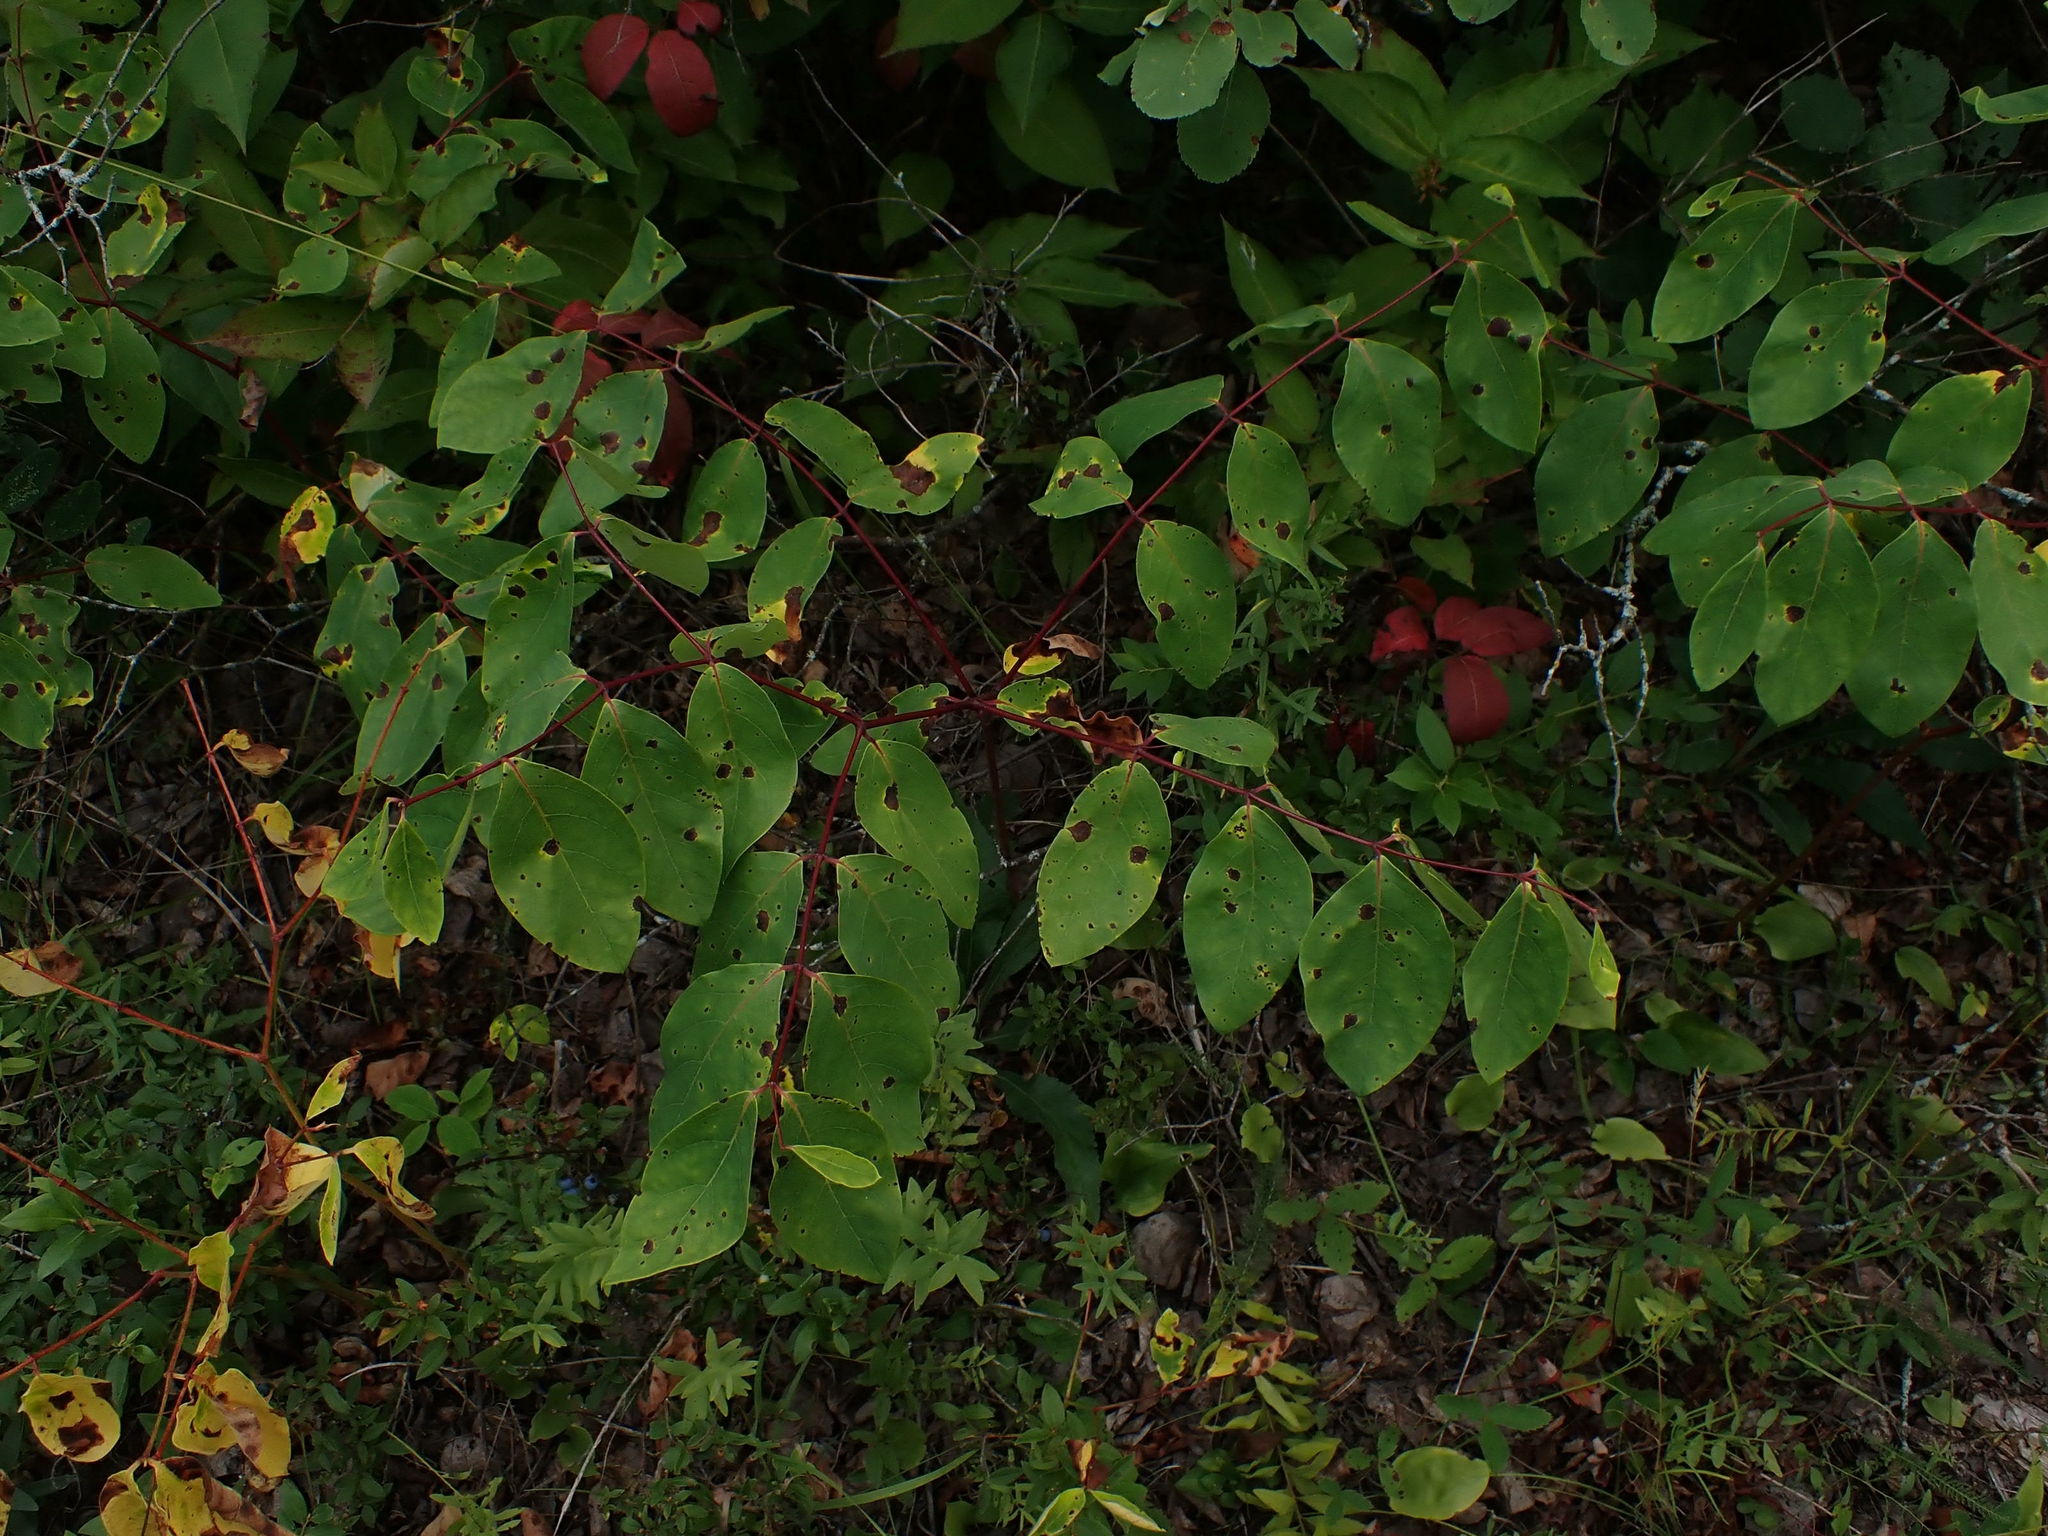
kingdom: Plantae
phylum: Tracheophyta
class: Magnoliopsida
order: Gentianales
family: Apocynaceae
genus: Apocynum
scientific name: Apocynum androsaemifolium
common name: Spreading dogbane
